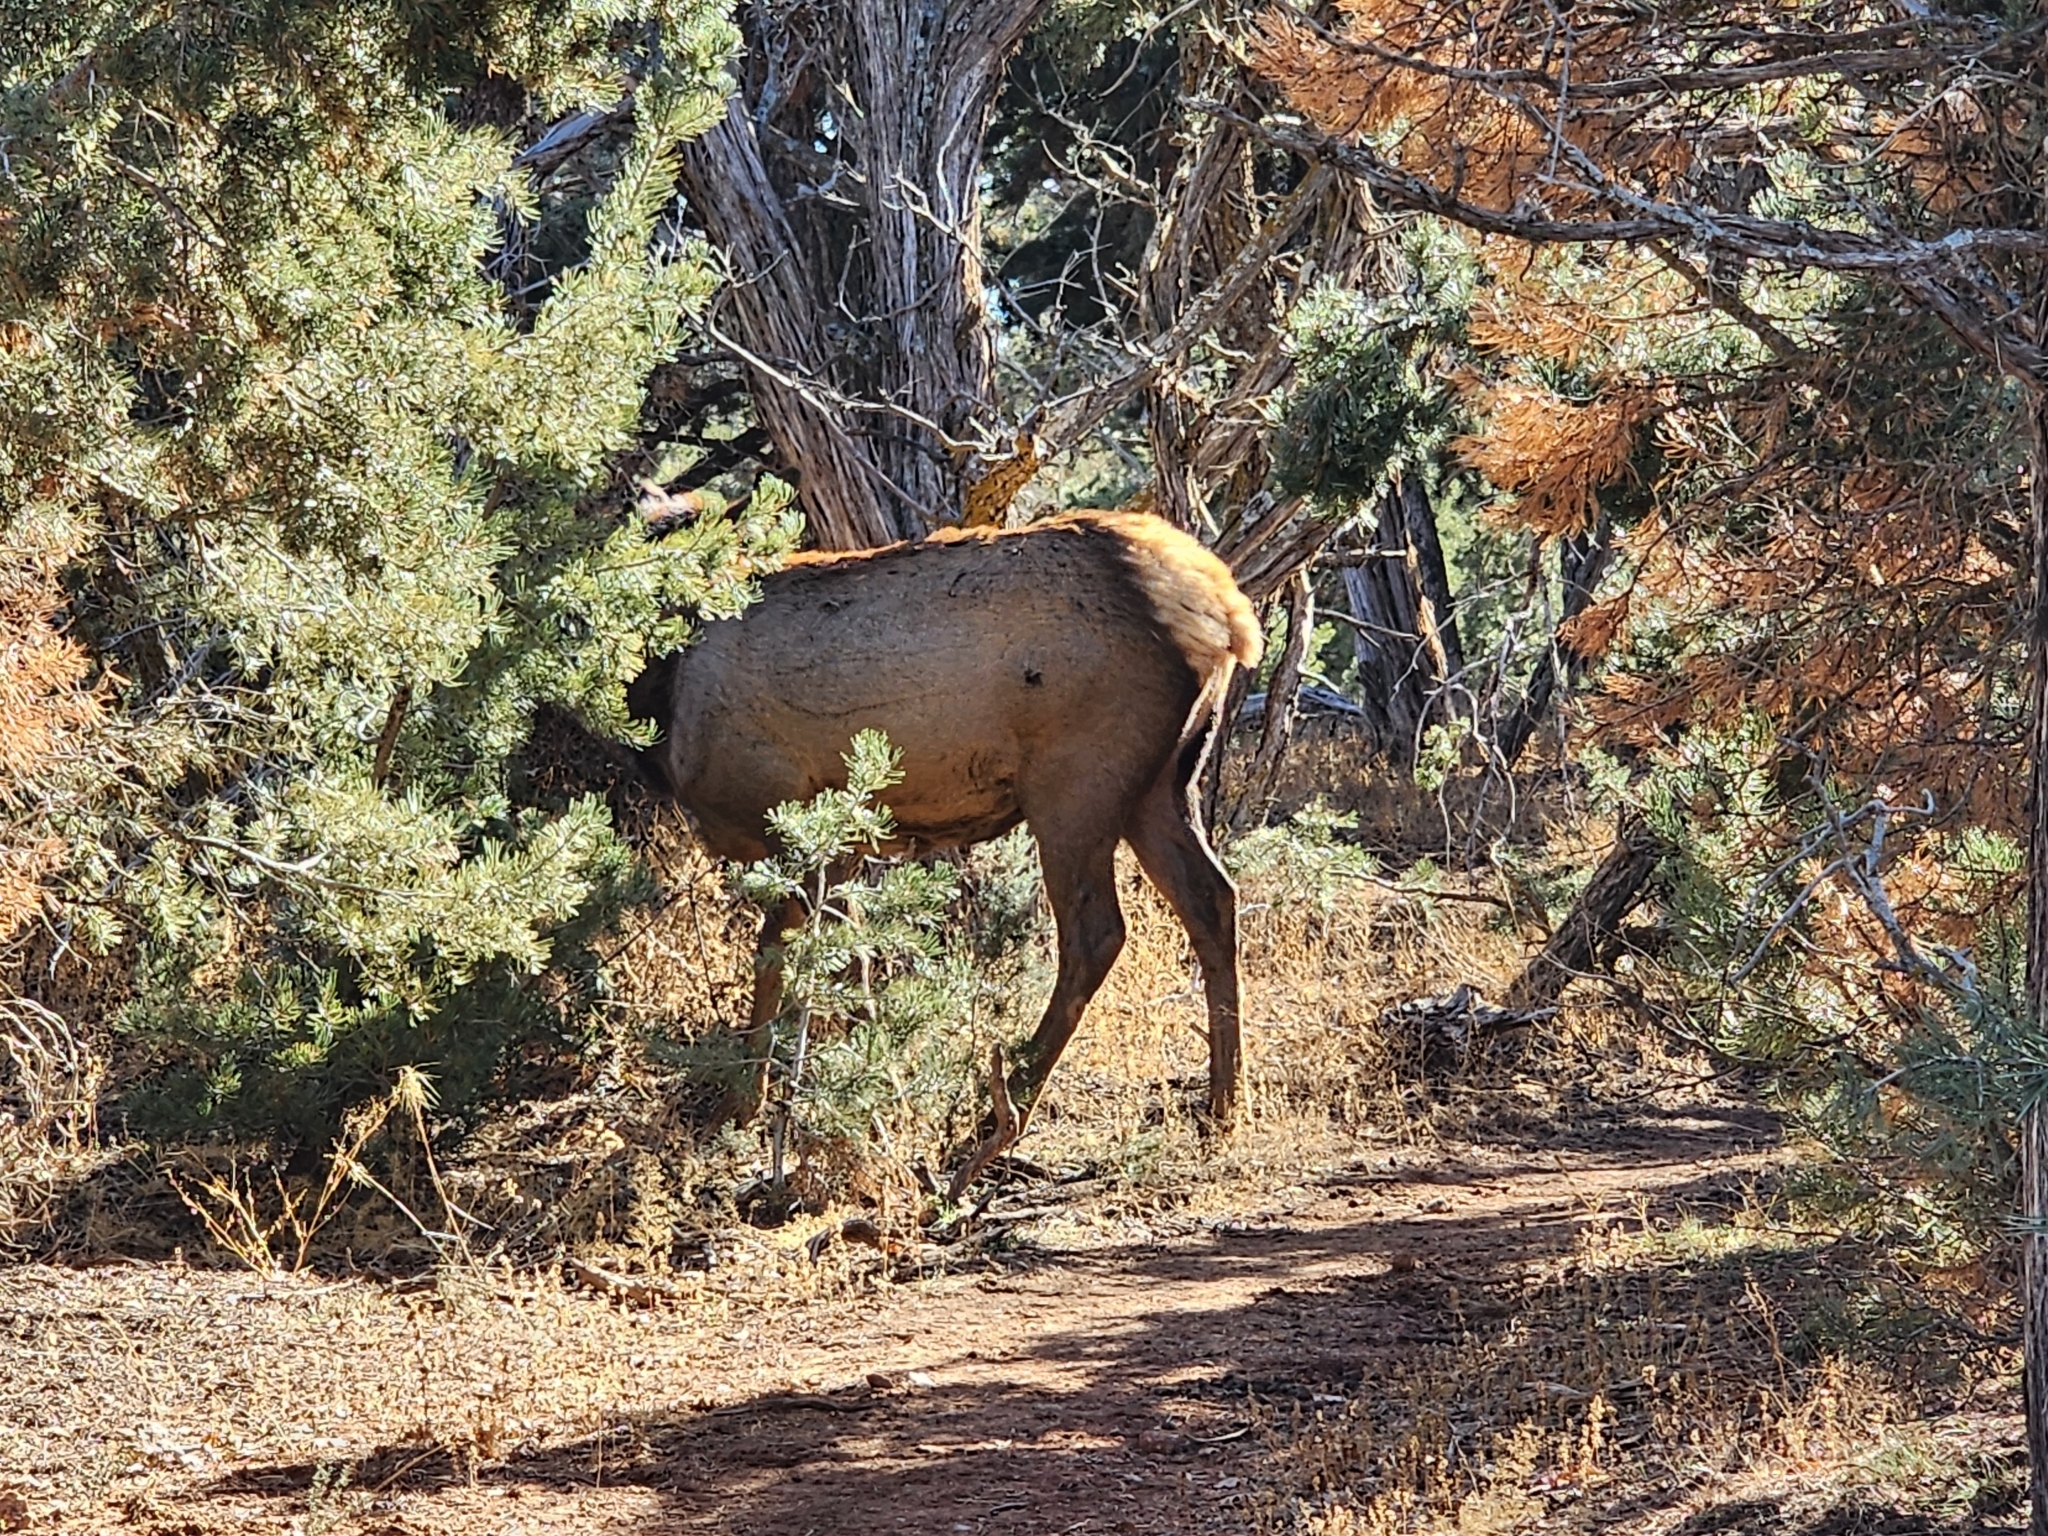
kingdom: Animalia
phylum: Chordata
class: Mammalia
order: Artiodactyla
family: Cervidae
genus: Cervus
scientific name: Cervus elaphus
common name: Red deer
